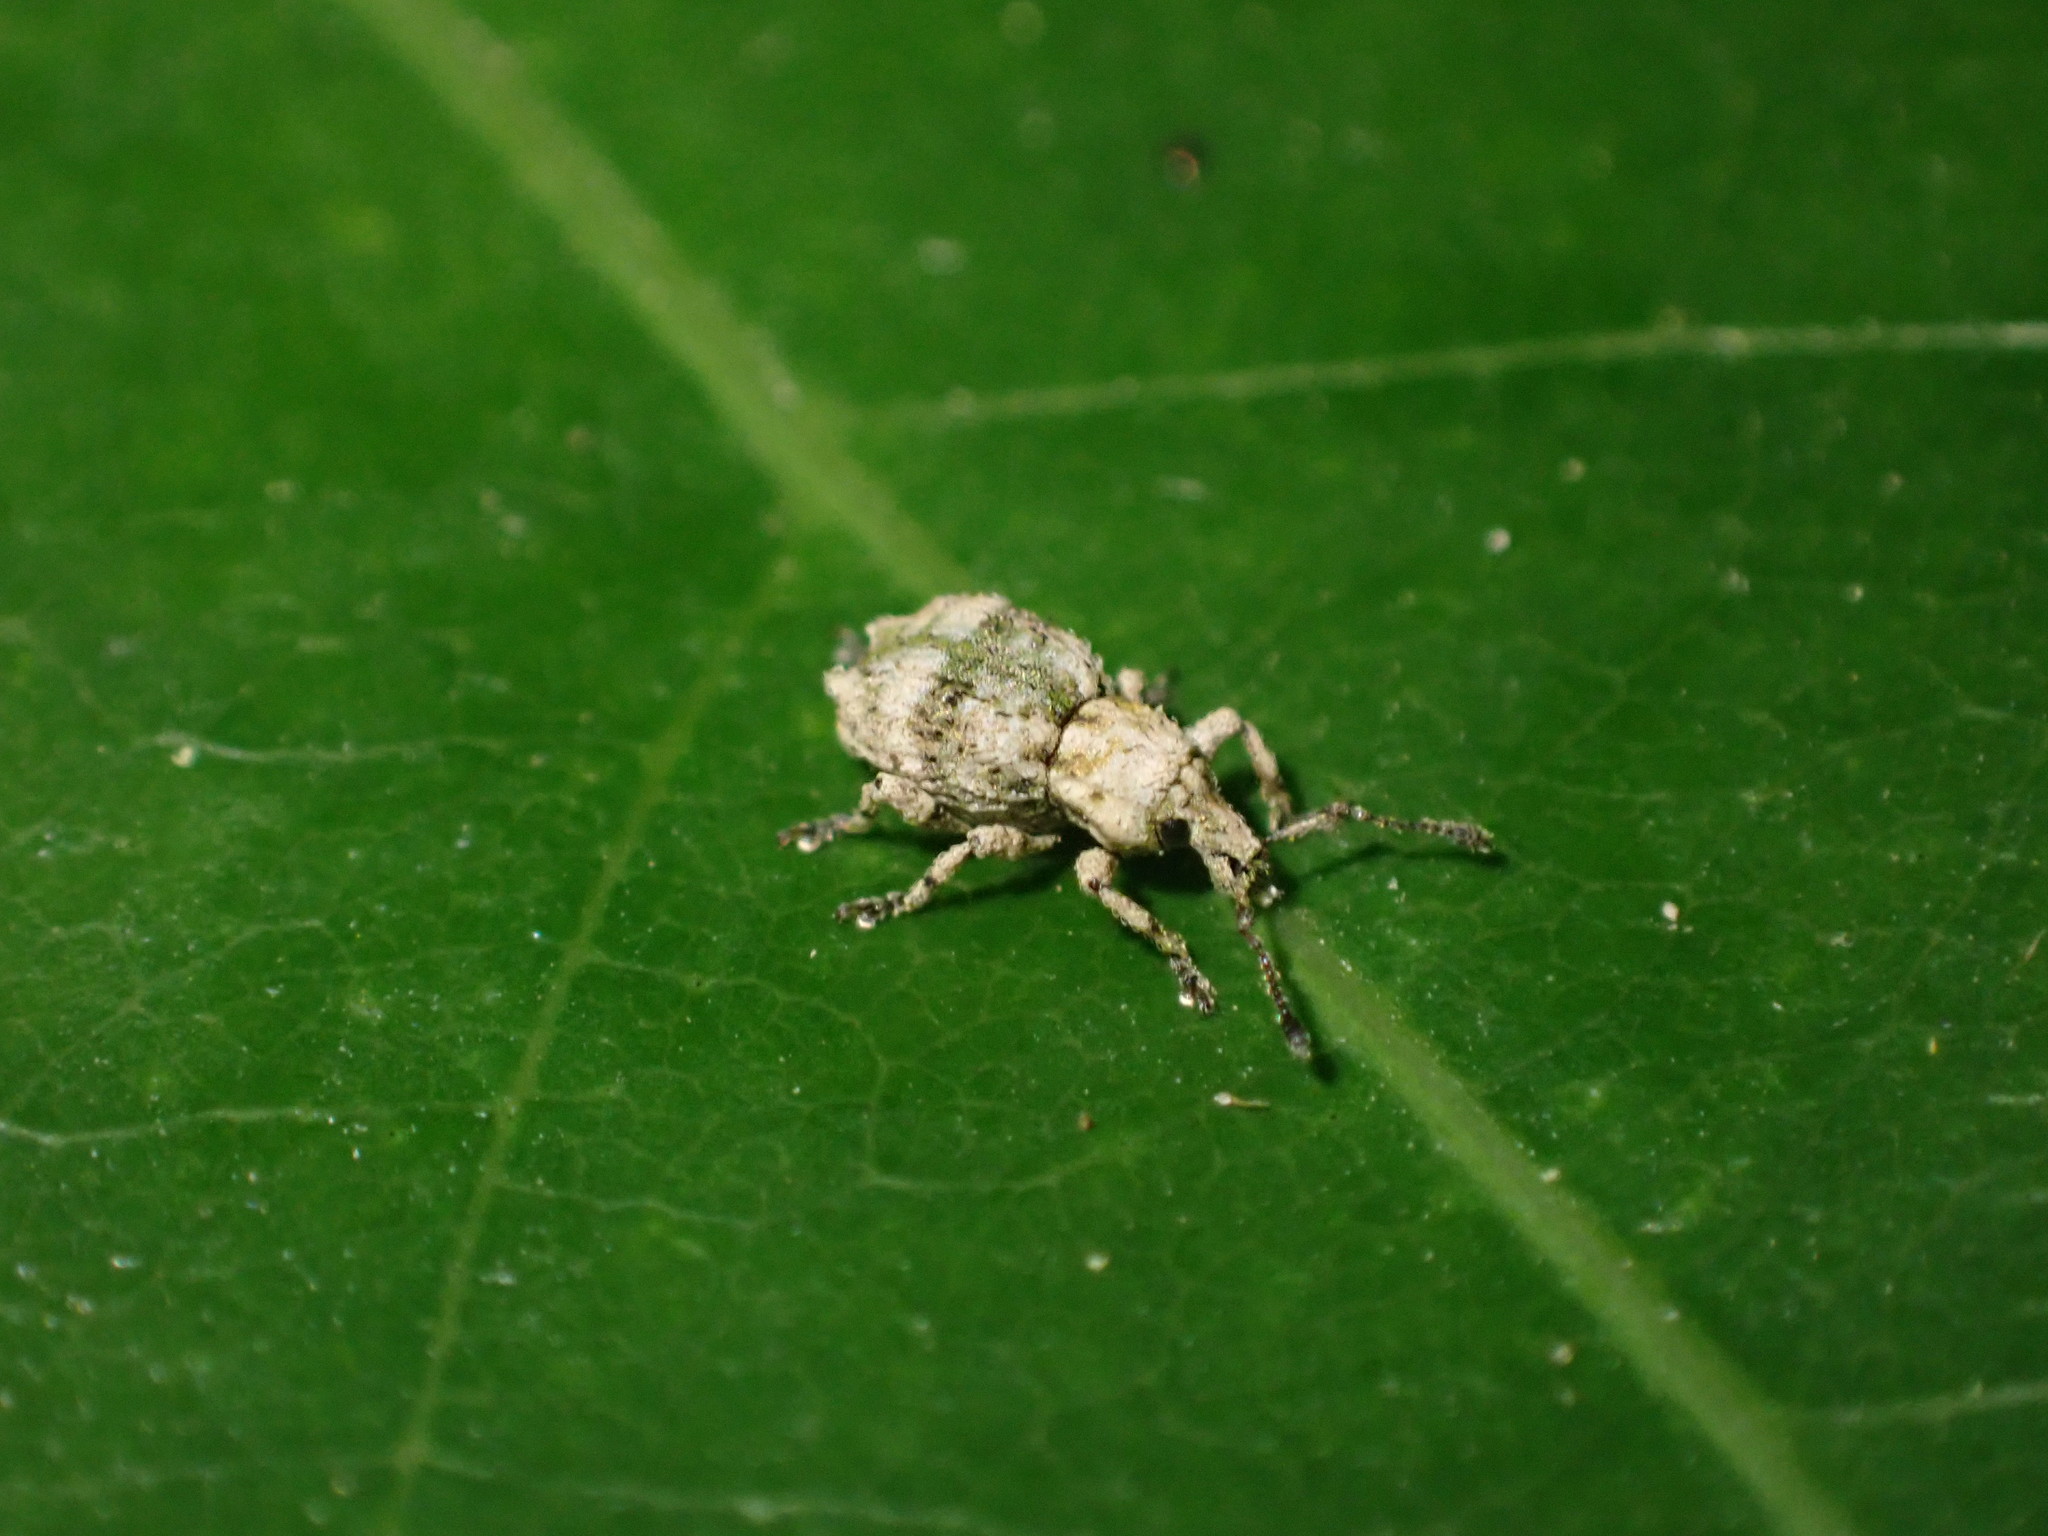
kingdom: Animalia
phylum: Arthropoda
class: Insecta
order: Coleoptera
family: Curculionidae
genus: Brachyolus
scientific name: Brachyolus punctatus
